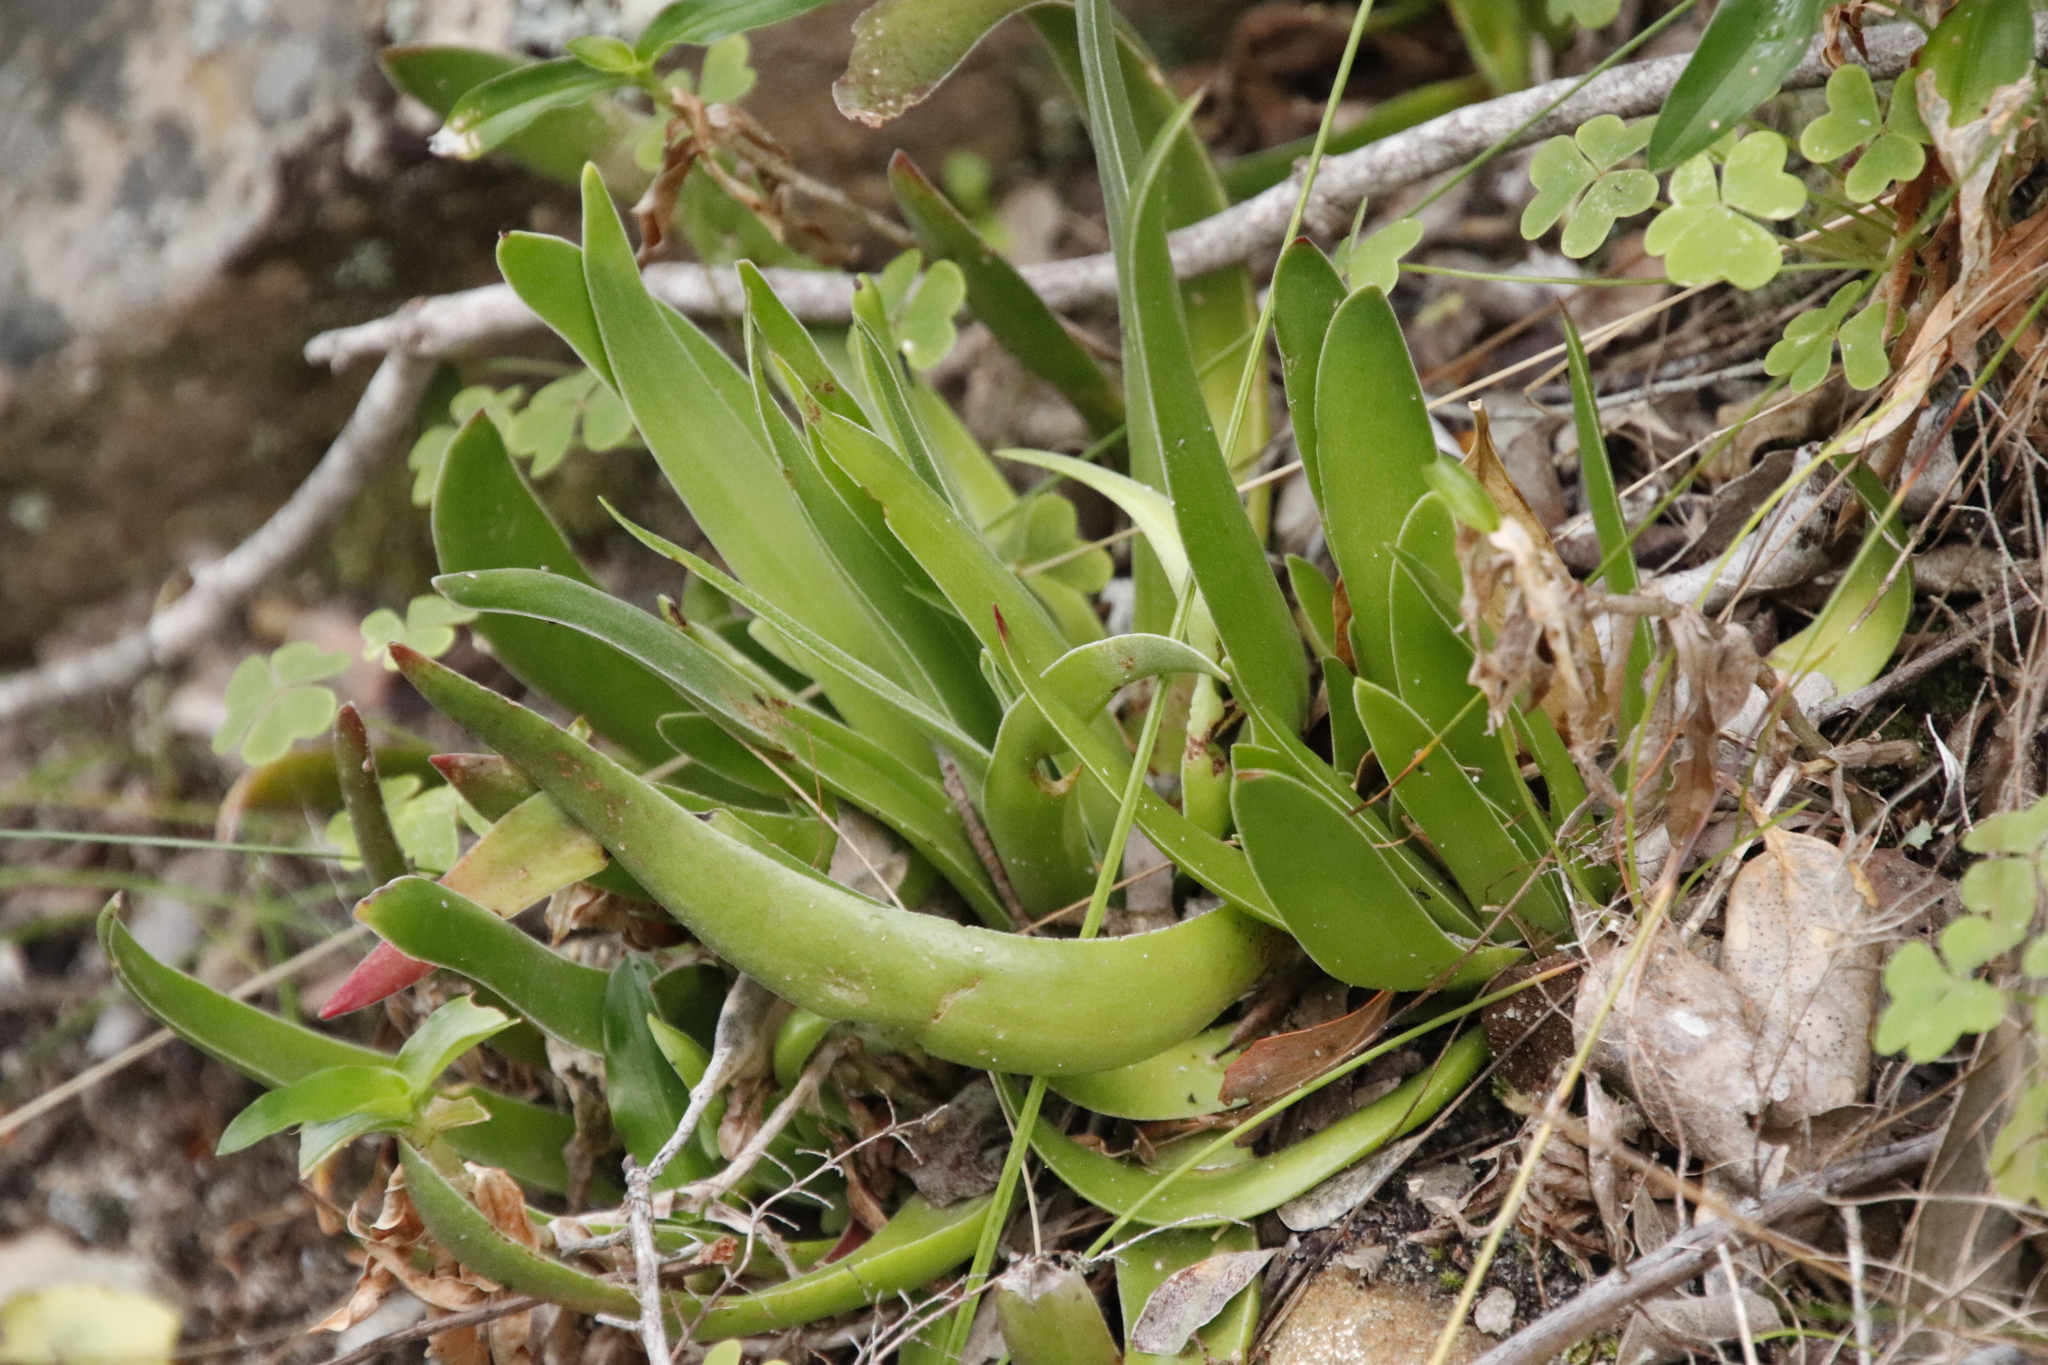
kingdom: Plantae
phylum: Tracheophyta
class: Magnoliopsida
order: Saxifragales
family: Crassulaceae
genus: Crassula
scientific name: Crassula nudicaulis
